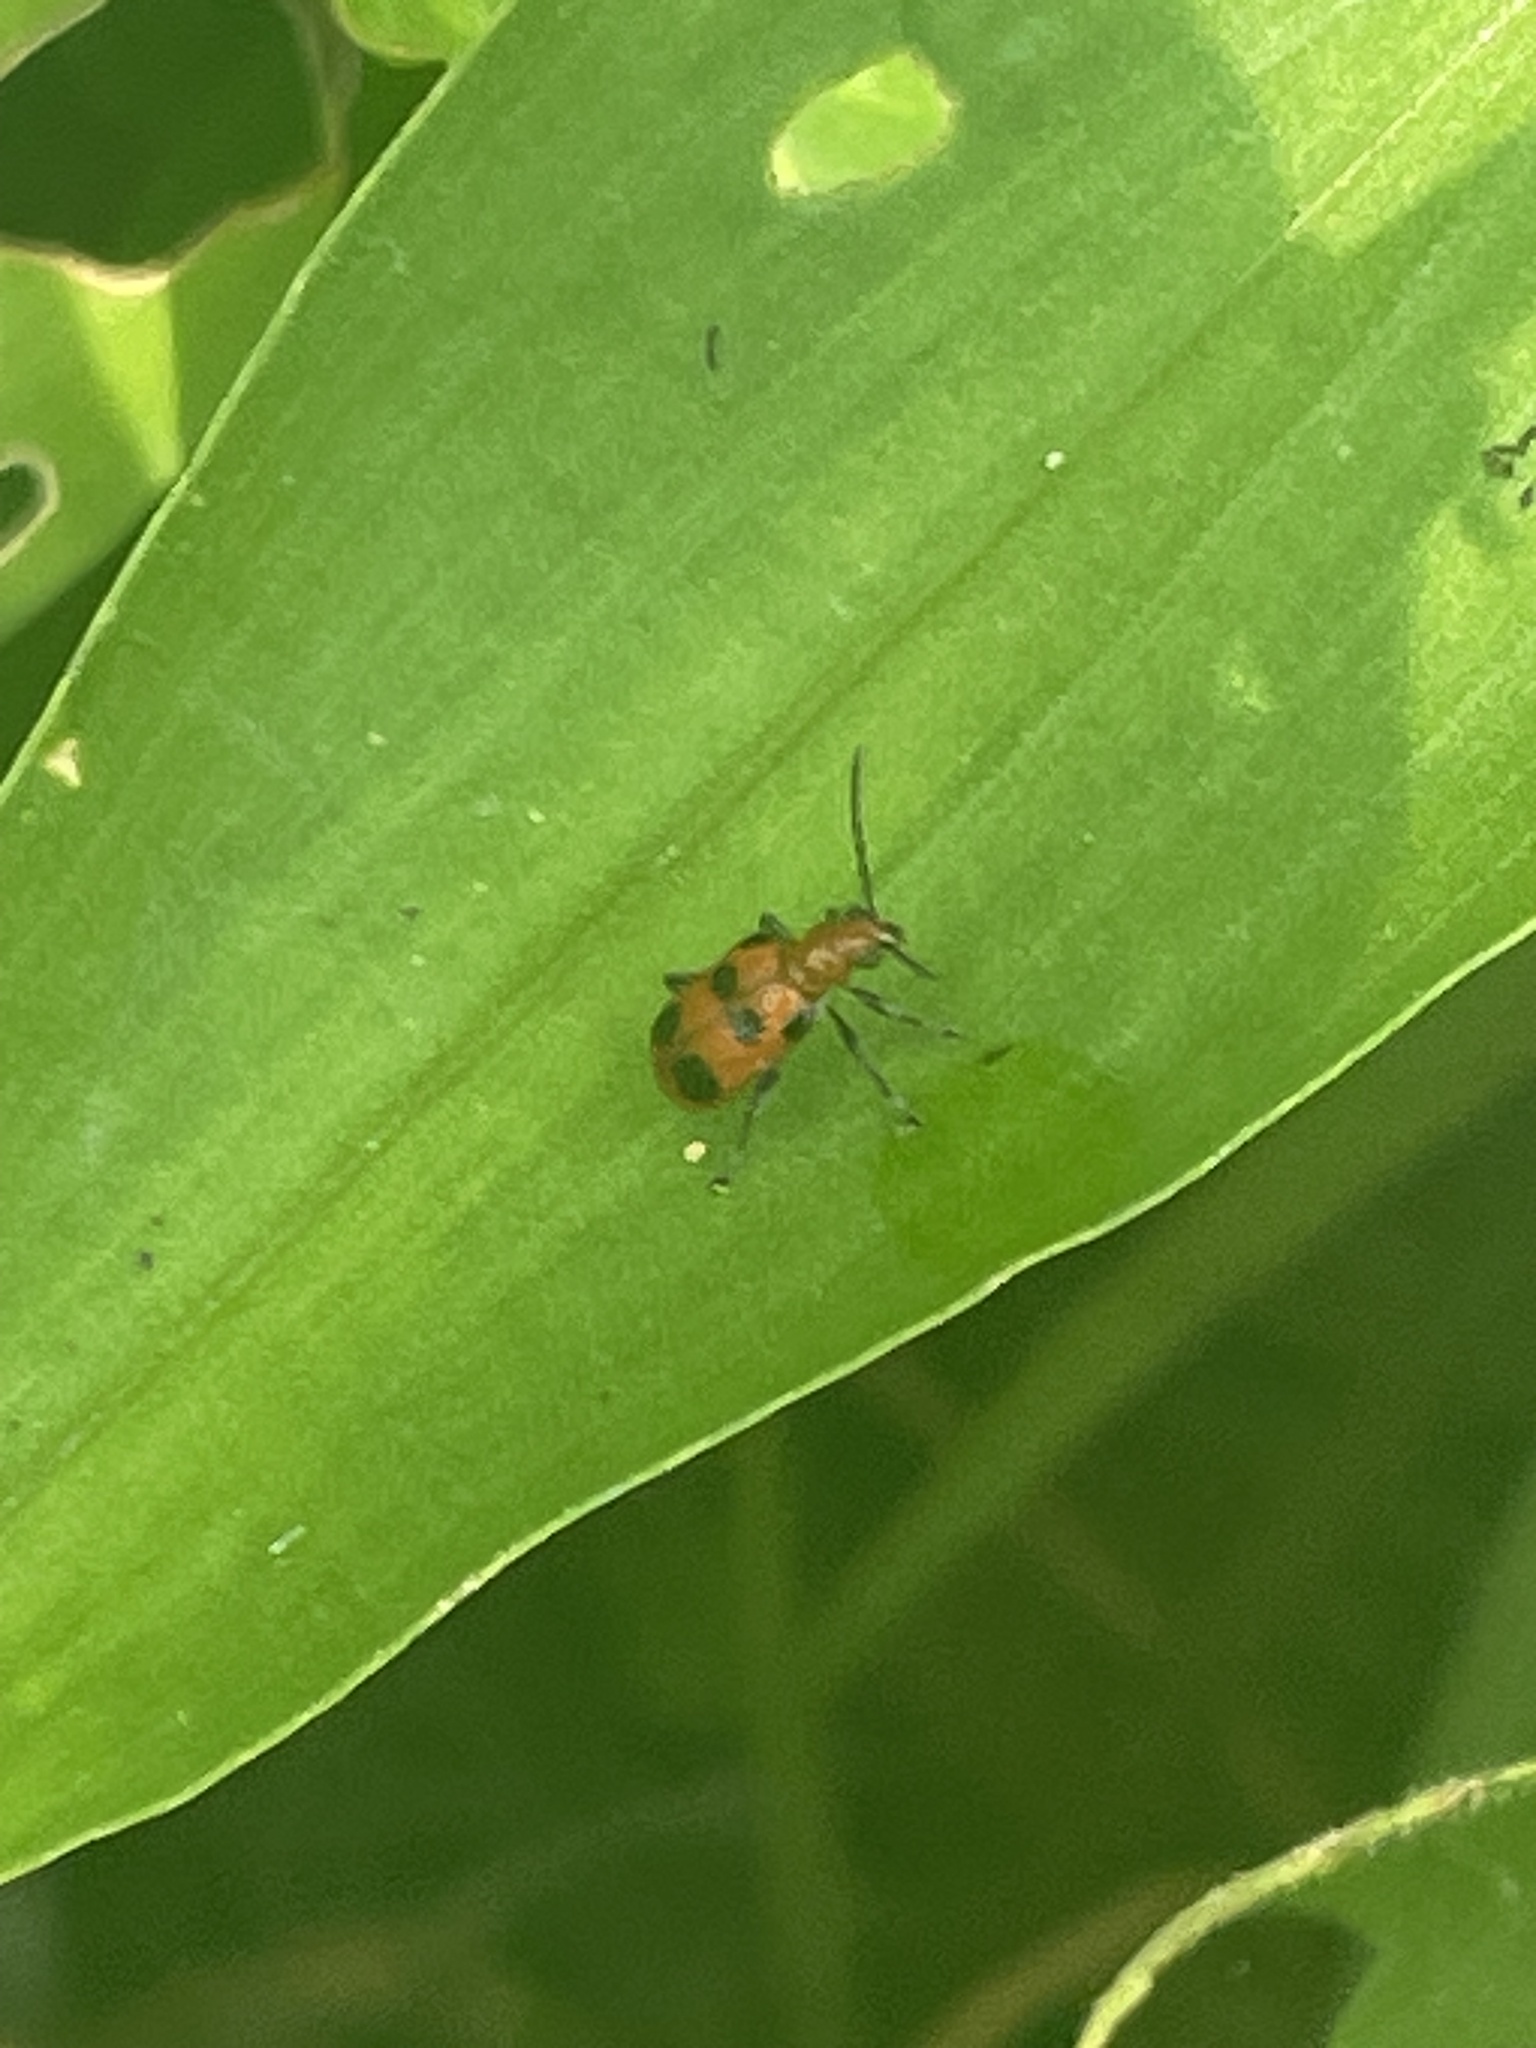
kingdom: Animalia
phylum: Arthropoda
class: Insecta
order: Coleoptera
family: Chrysomelidae
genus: Neolema
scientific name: Neolema sexpunctata
